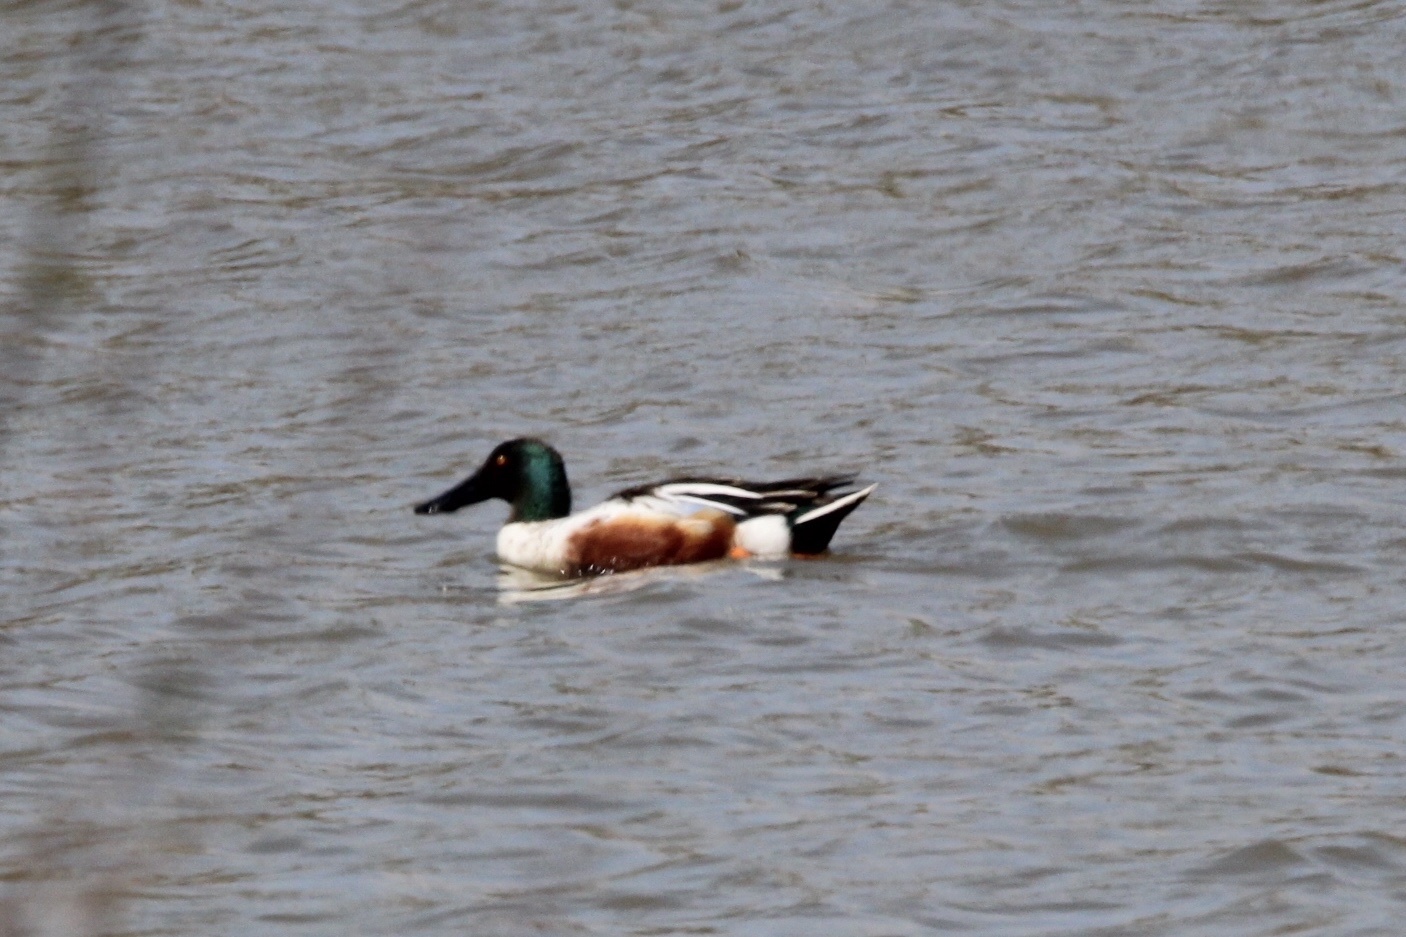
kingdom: Animalia
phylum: Chordata
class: Aves
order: Anseriformes
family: Anatidae
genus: Spatula
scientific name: Spatula clypeata
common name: Northern shoveler
